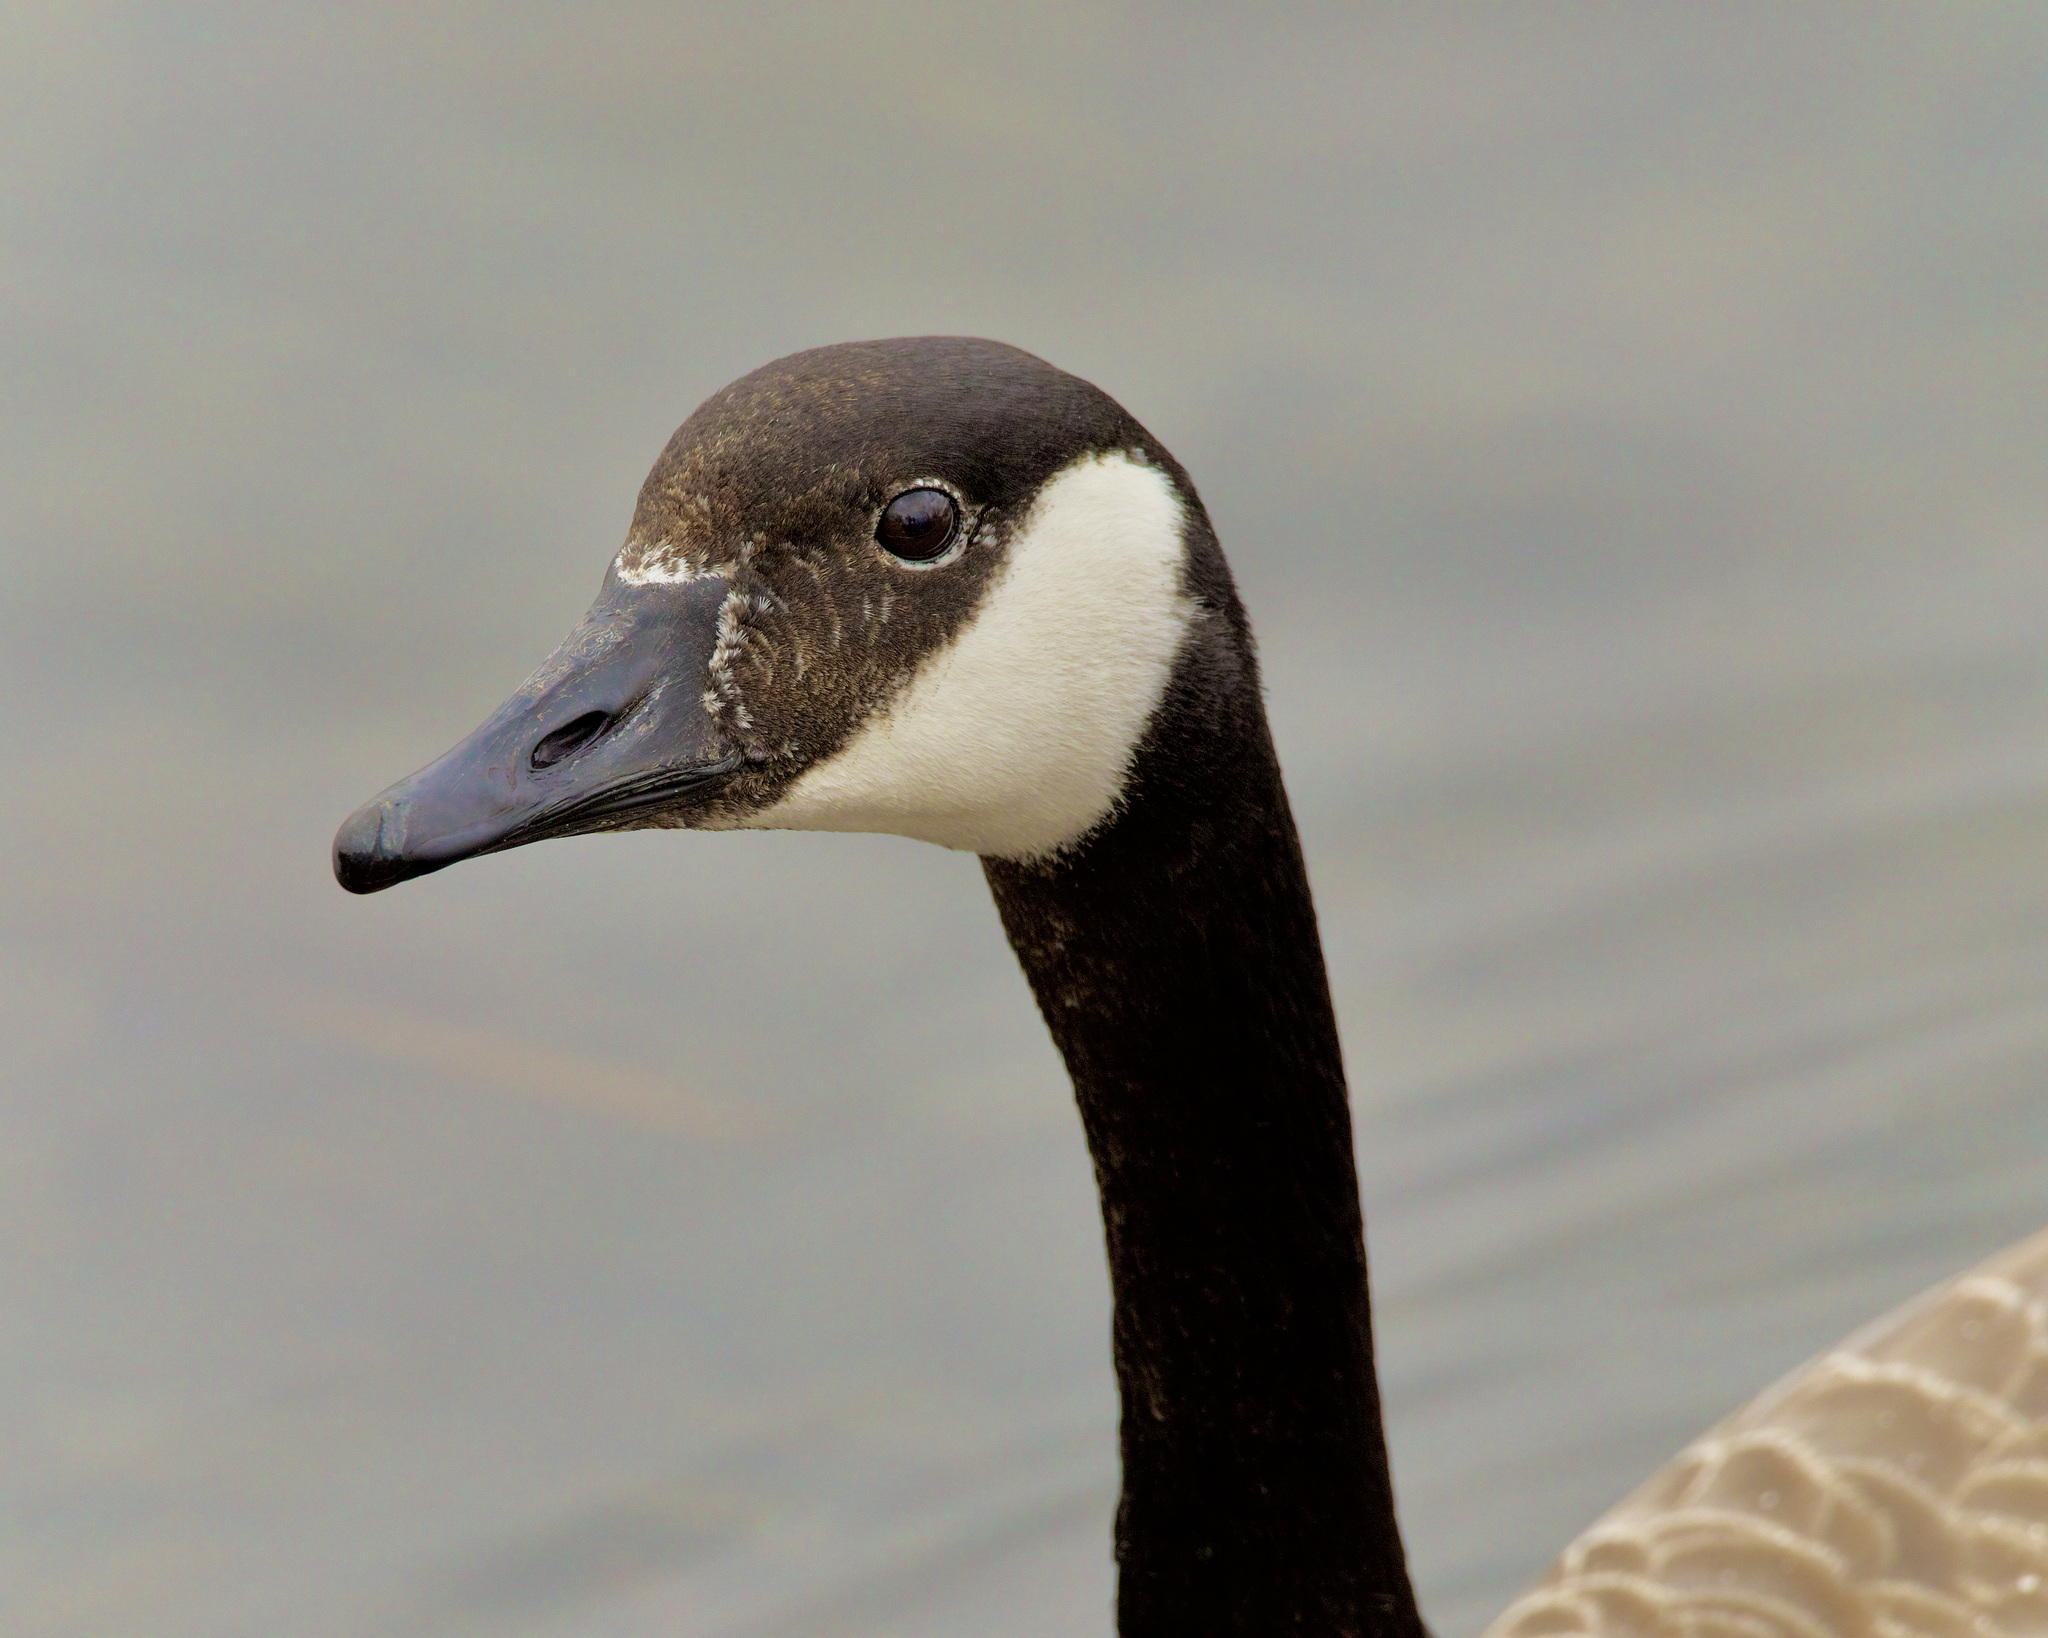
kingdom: Animalia
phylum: Chordata
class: Aves
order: Anseriformes
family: Anatidae
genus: Branta
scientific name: Branta canadensis
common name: Canada goose
